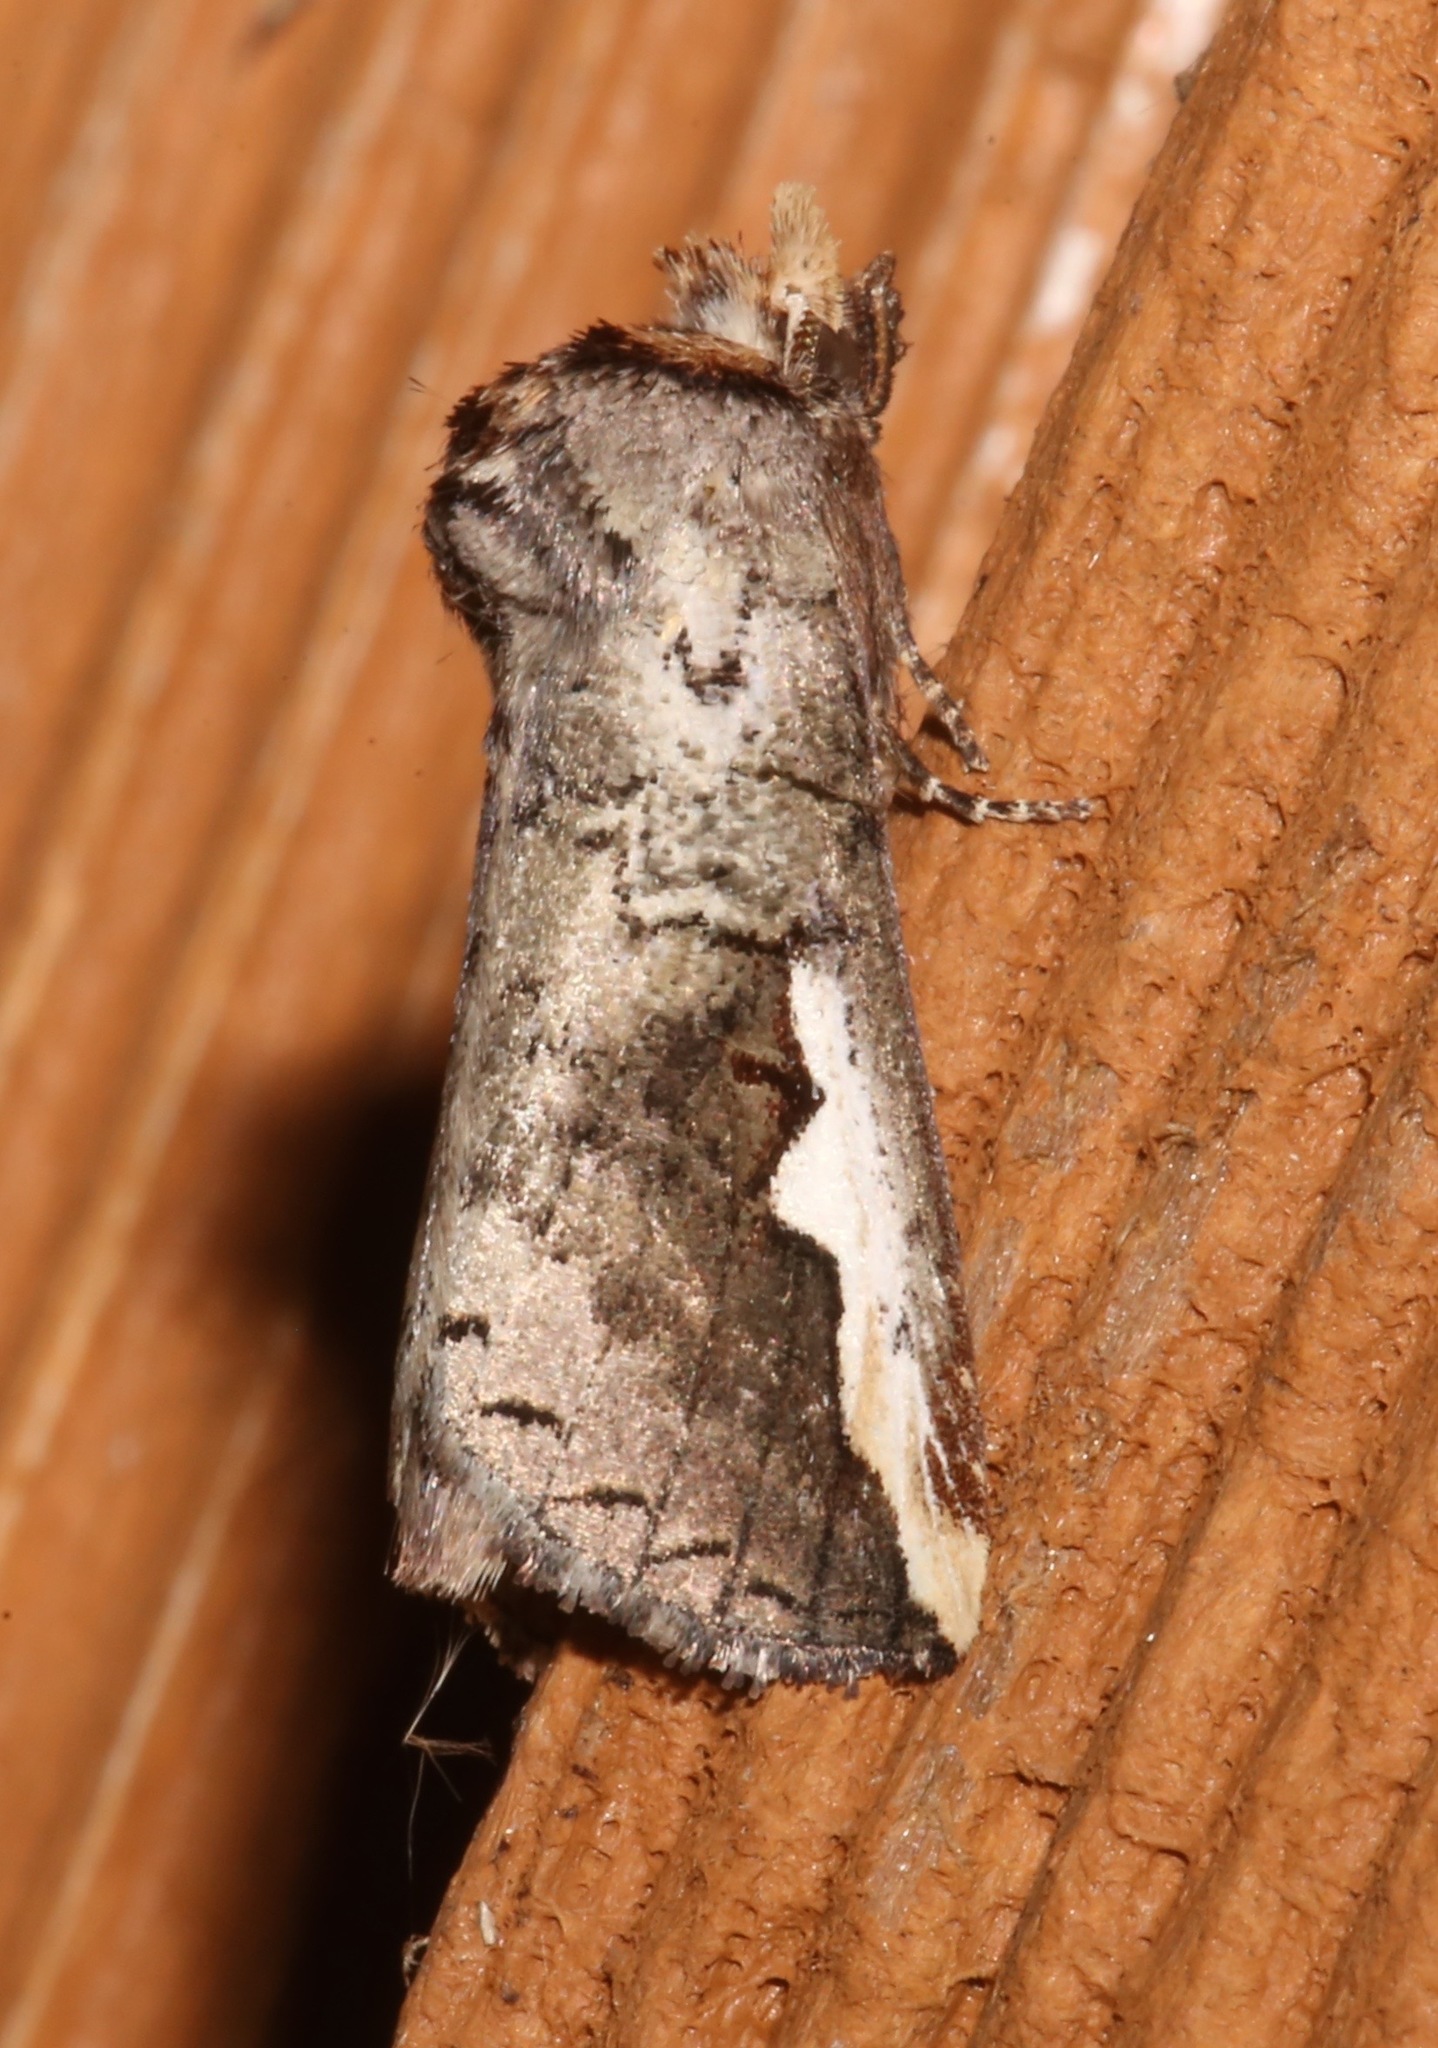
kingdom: Animalia
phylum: Arthropoda
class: Insecta
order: Lepidoptera
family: Notodontidae
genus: Symmerista
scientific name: Symmerista albifrons
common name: White-headed prominent
